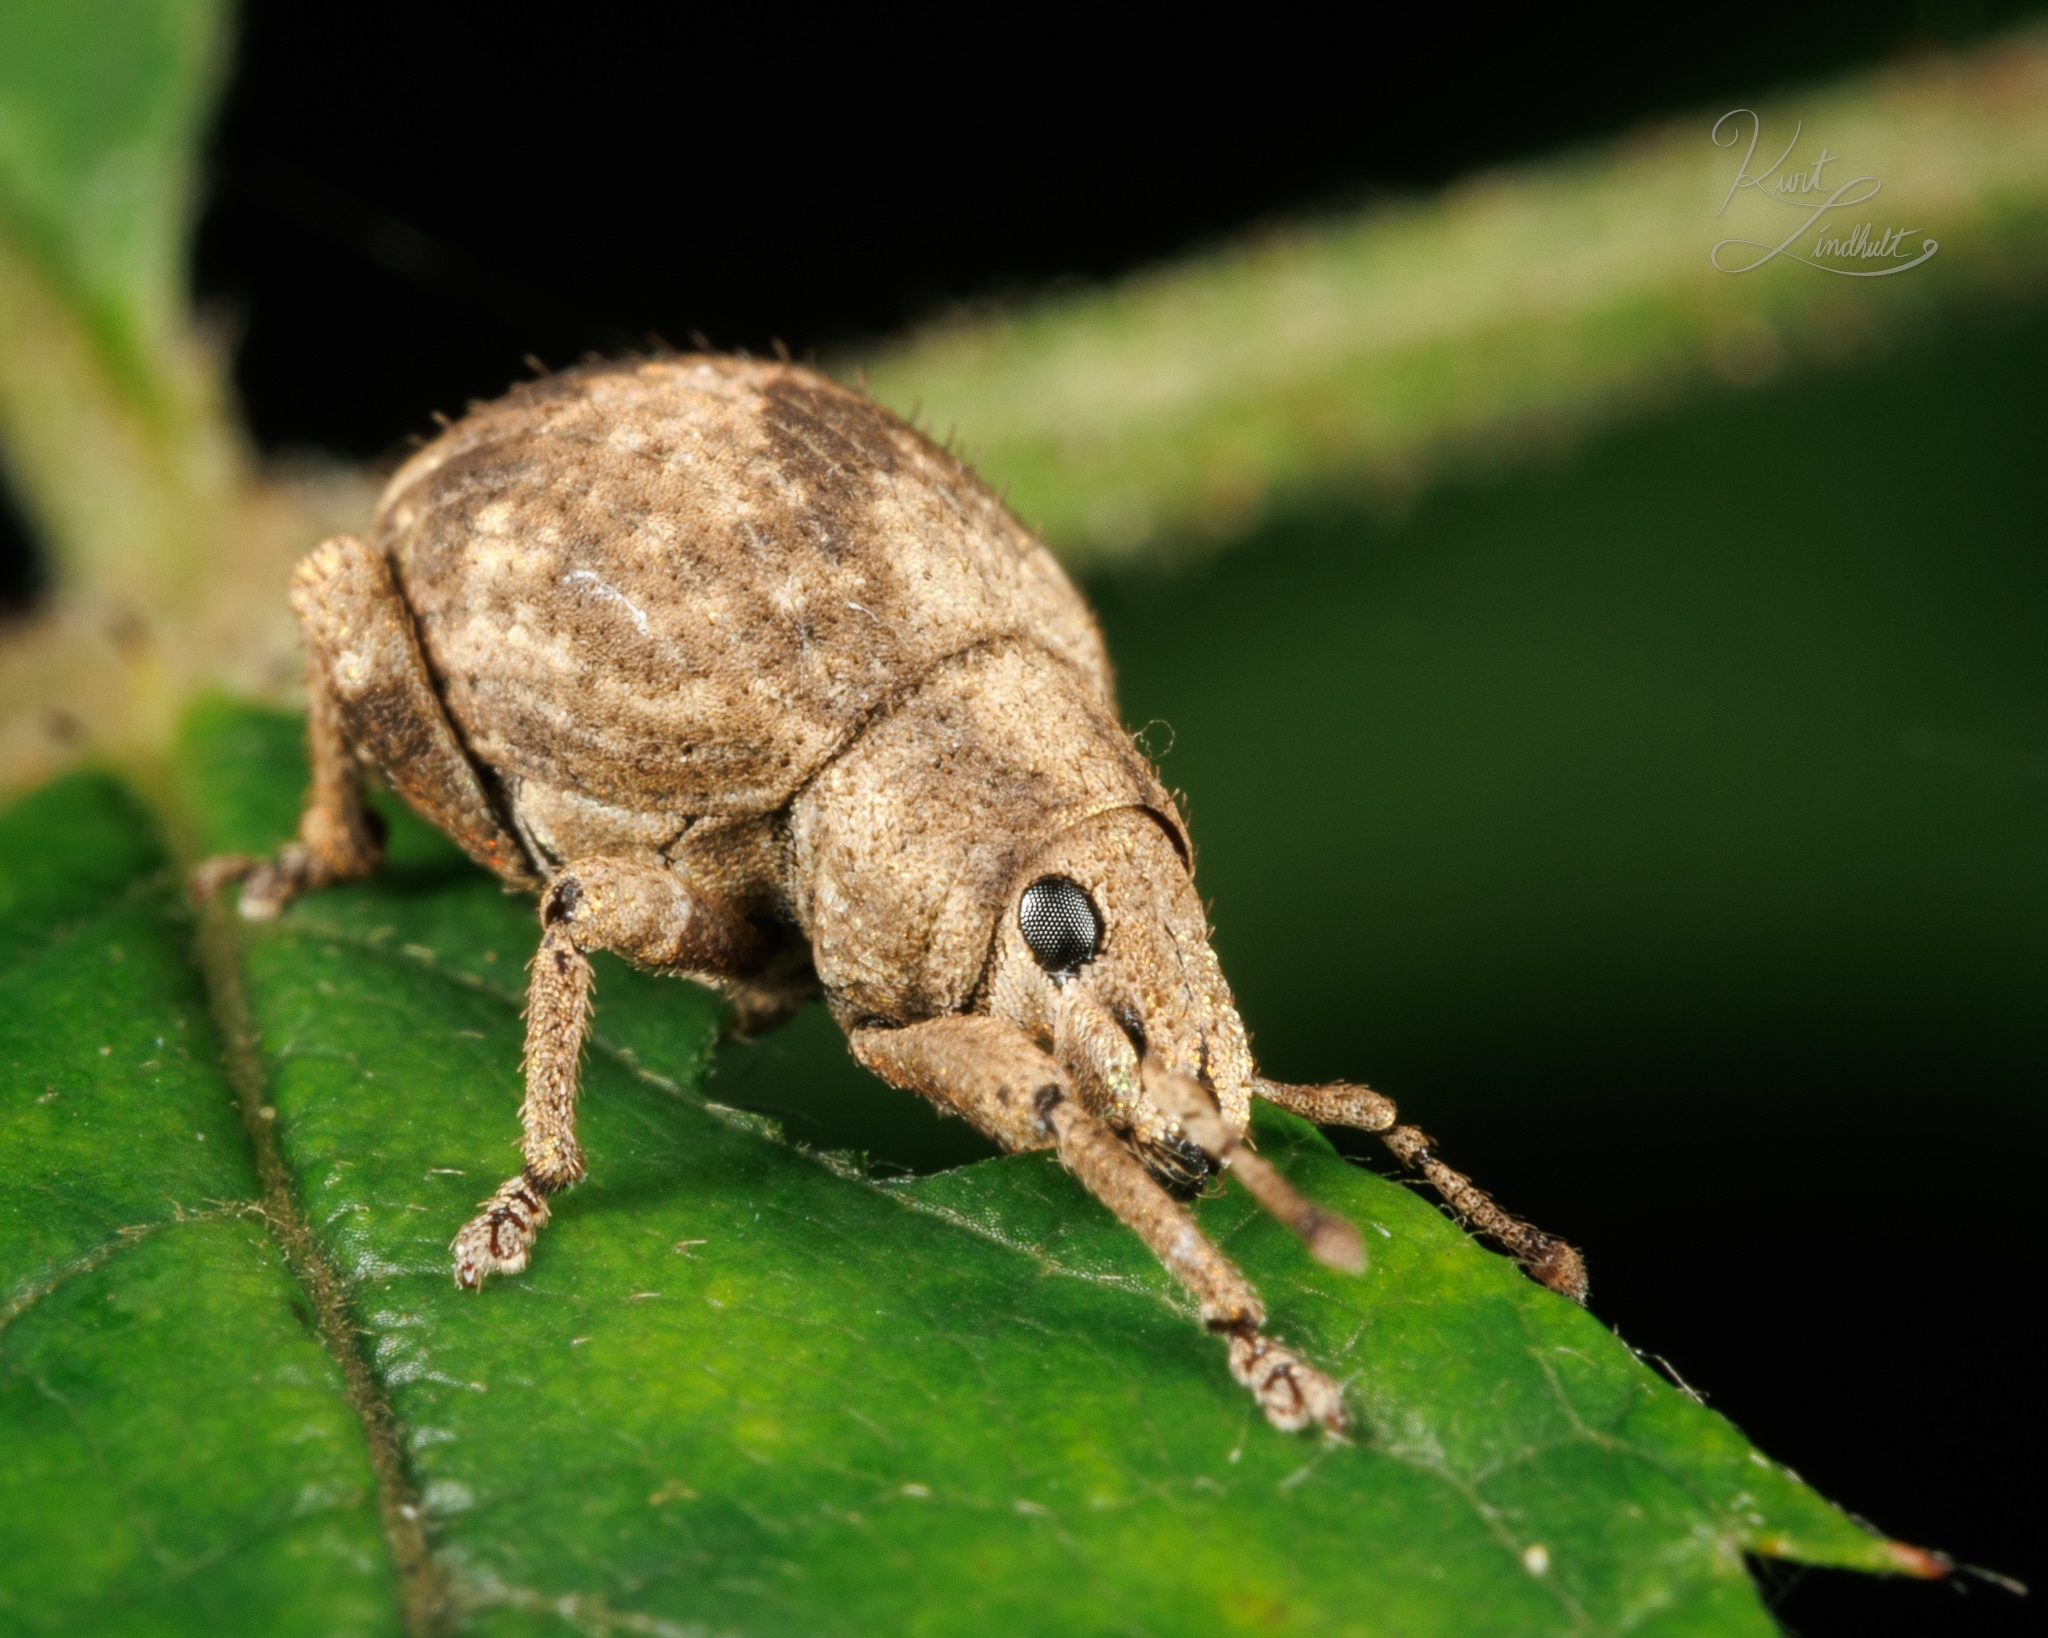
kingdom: Animalia
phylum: Arthropoda
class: Insecta
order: Coleoptera
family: Curculionidae
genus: Pseudocneorhinus
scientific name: Pseudocneorhinus bifasciatus
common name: Two-banded japanese weevil
